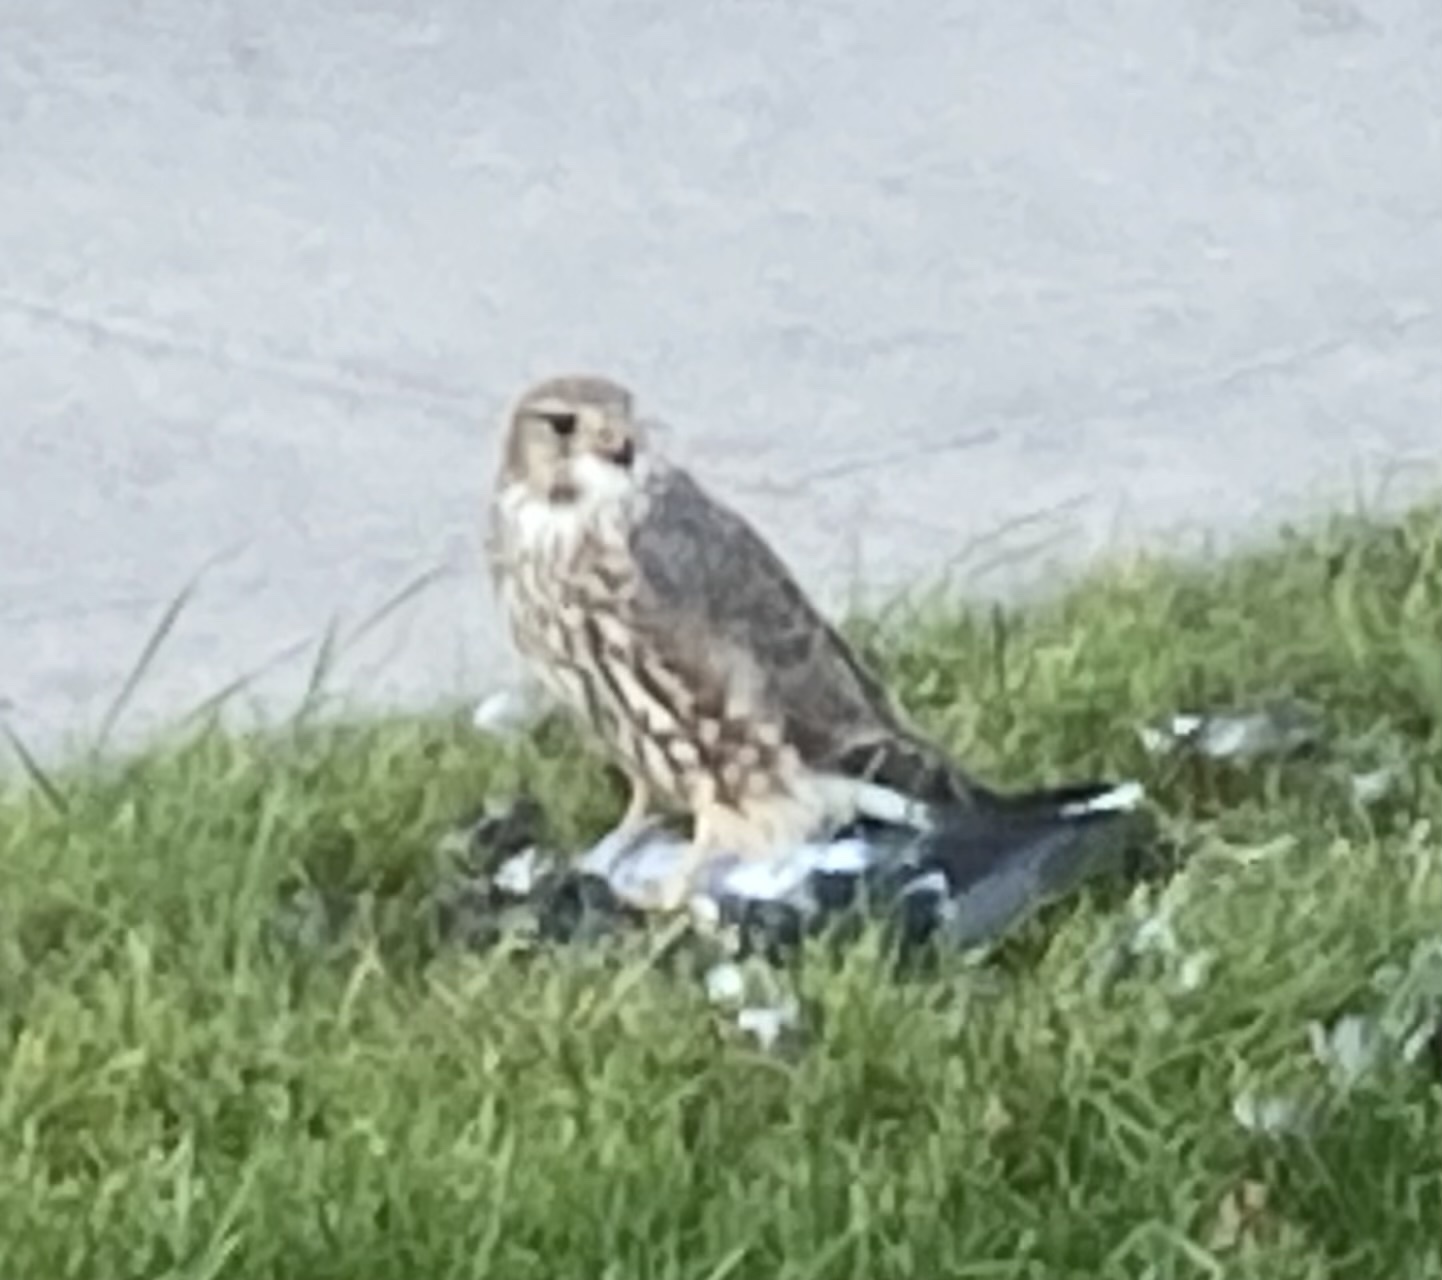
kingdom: Animalia
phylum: Chordata
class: Aves
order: Falconiformes
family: Falconidae
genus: Falco
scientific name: Falco columbarius
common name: Merlin
